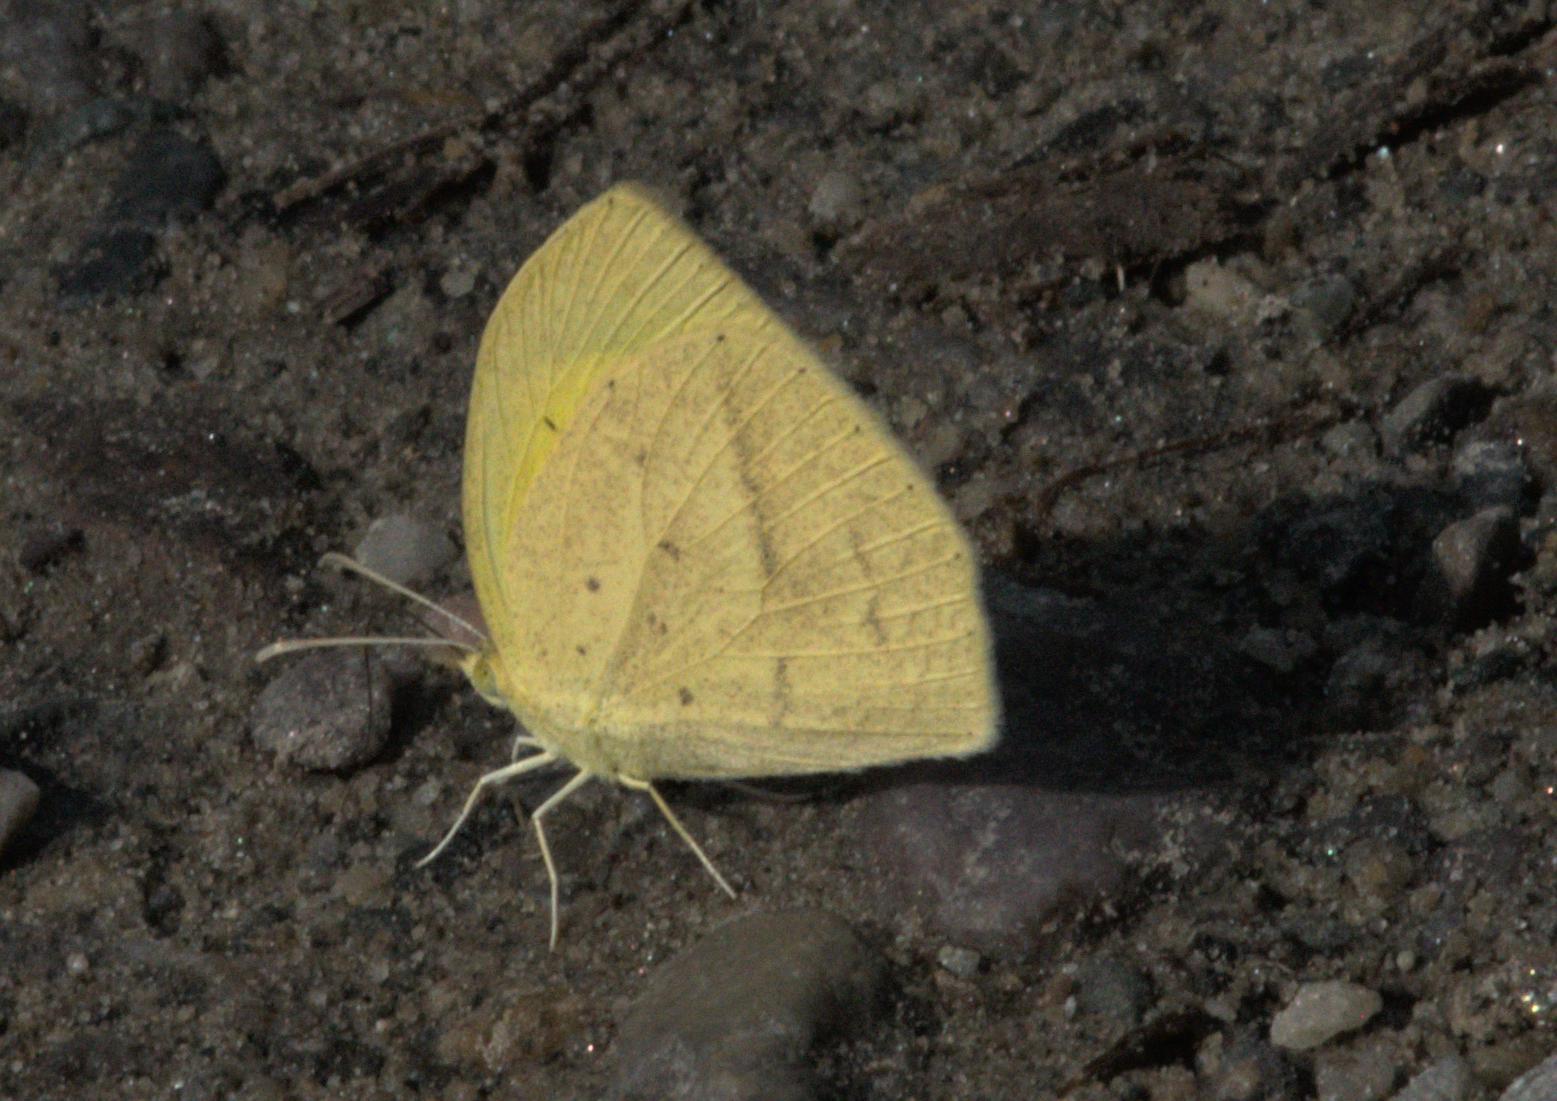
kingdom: Animalia
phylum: Arthropoda
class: Insecta
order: Lepidoptera
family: Pieridae
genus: Eurema
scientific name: Eurema laeta
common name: Spotless grass yellow
